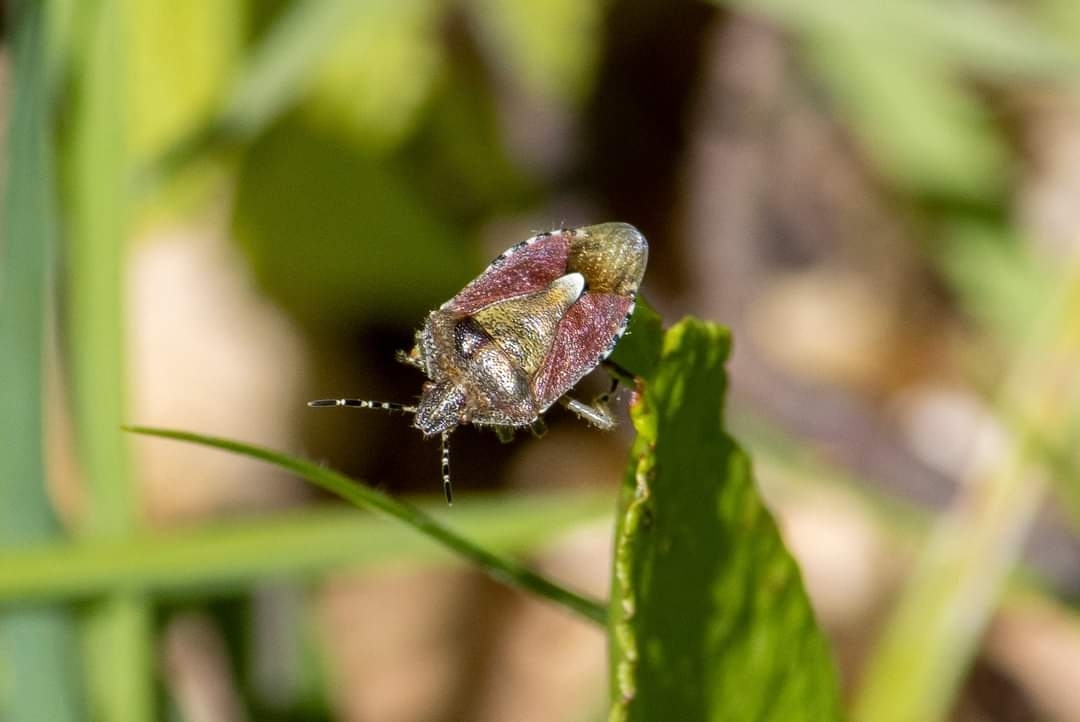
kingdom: Animalia
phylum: Arthropoda
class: Insecta
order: Hemiptera
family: Pentatomidae
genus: Dolycoris
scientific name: Dolycoris baccarum
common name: Sloe bug
